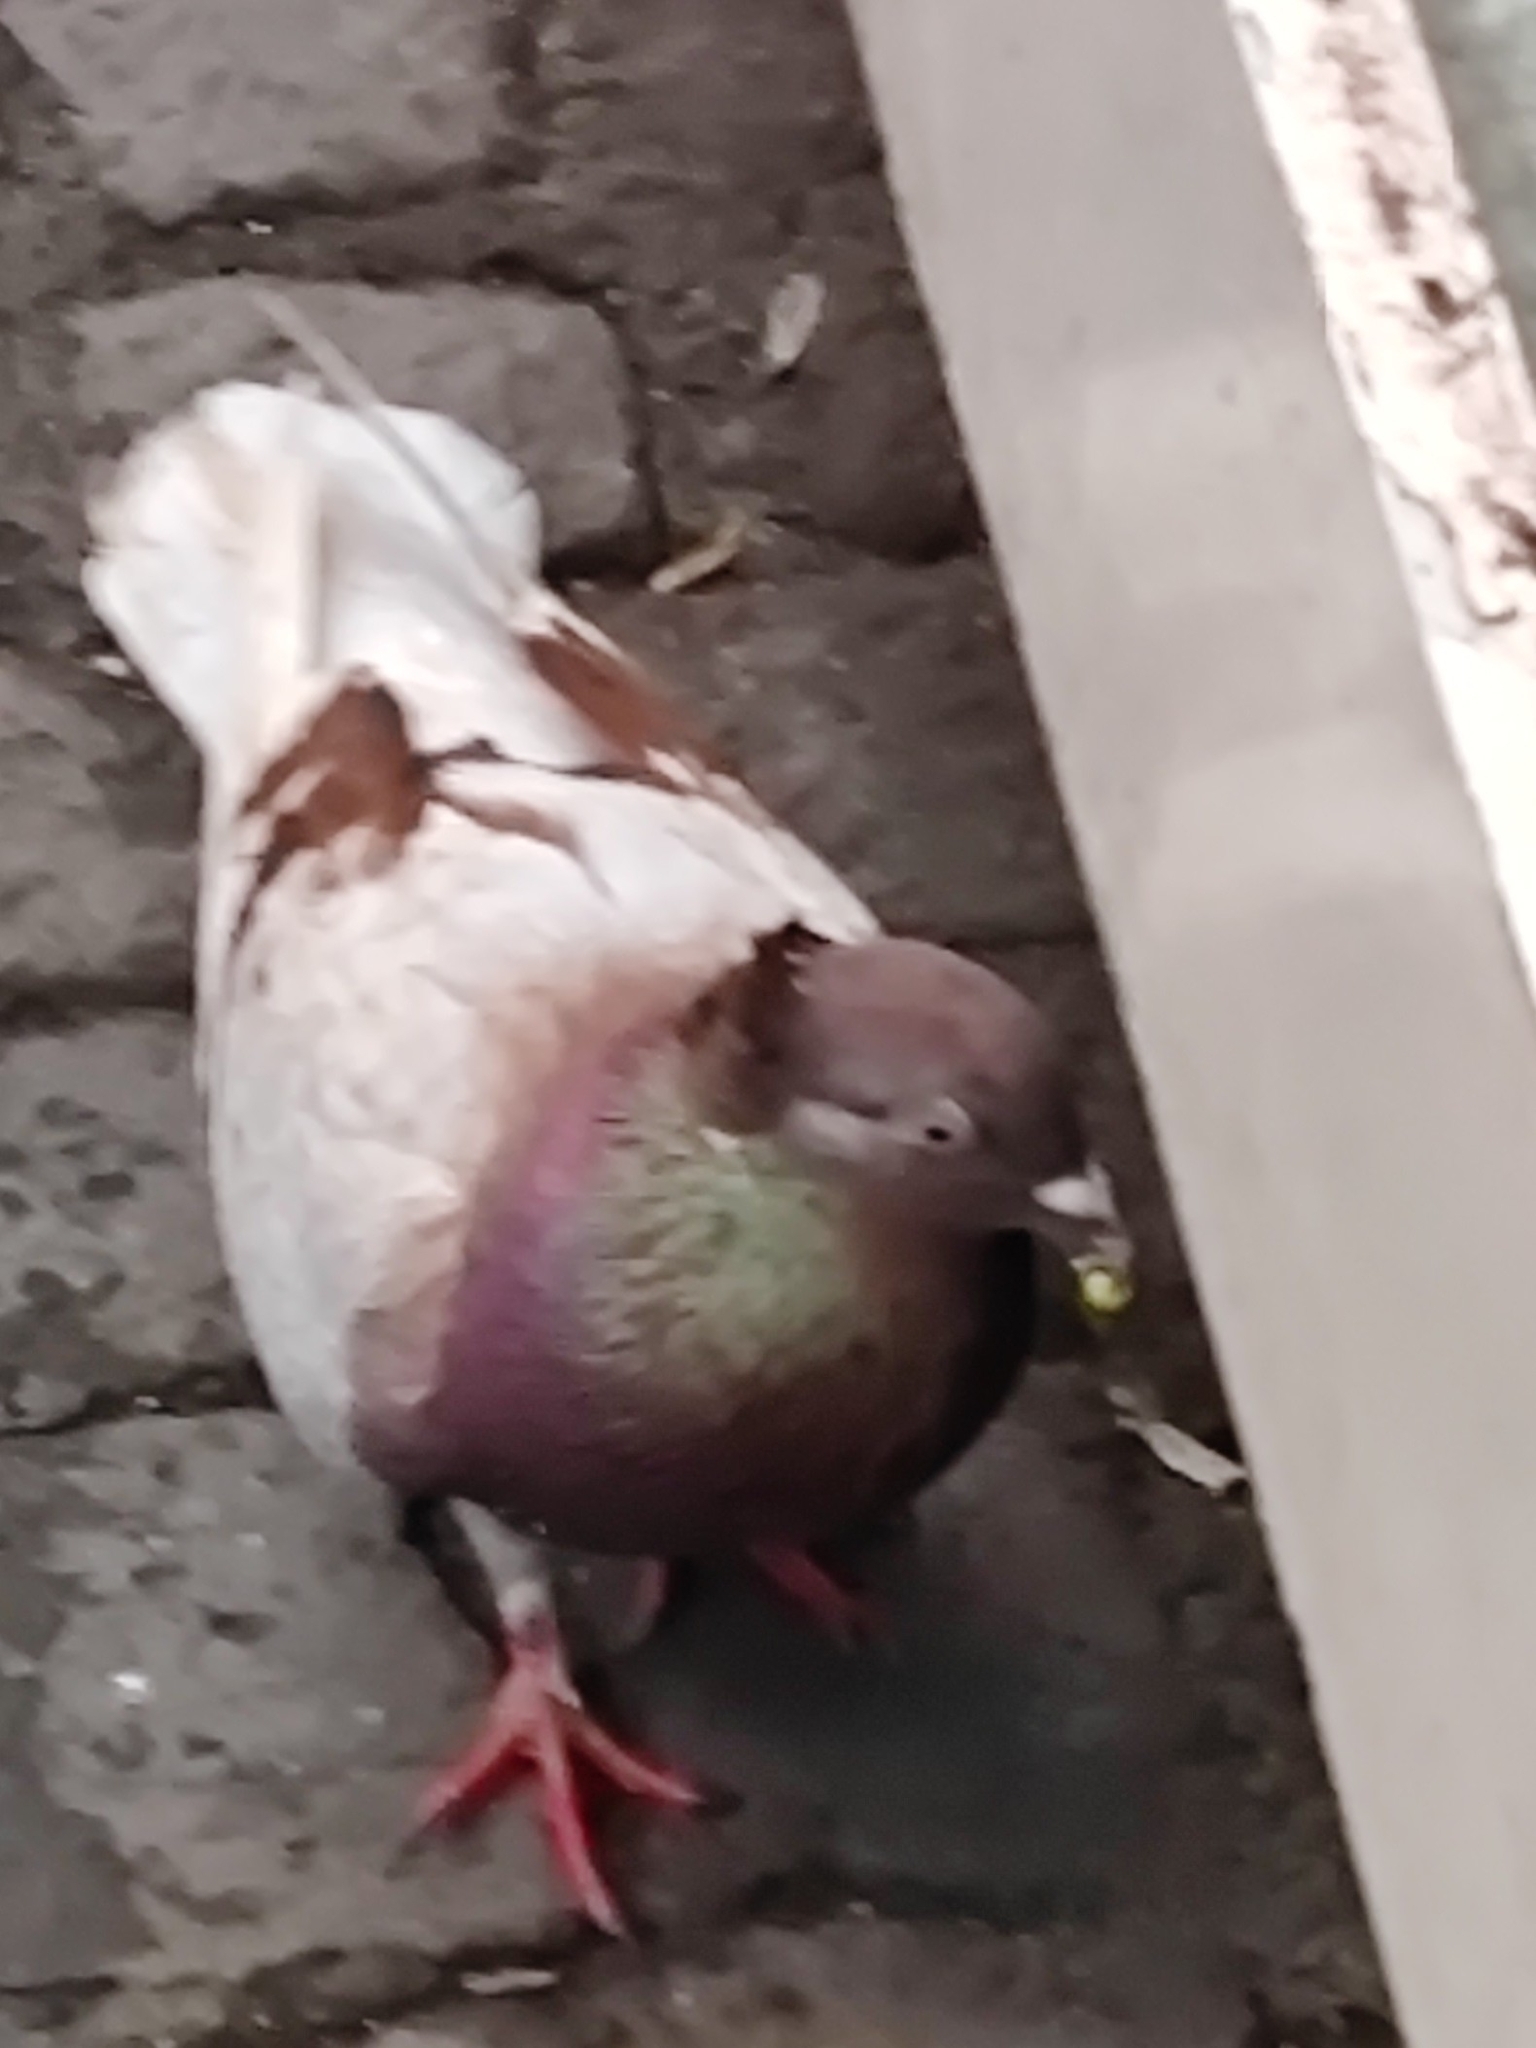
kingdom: Animalia
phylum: Chordata
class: Aves
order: Columbiformes
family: Columbidae
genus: Columba
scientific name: Columba livia
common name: Rock pigeon
